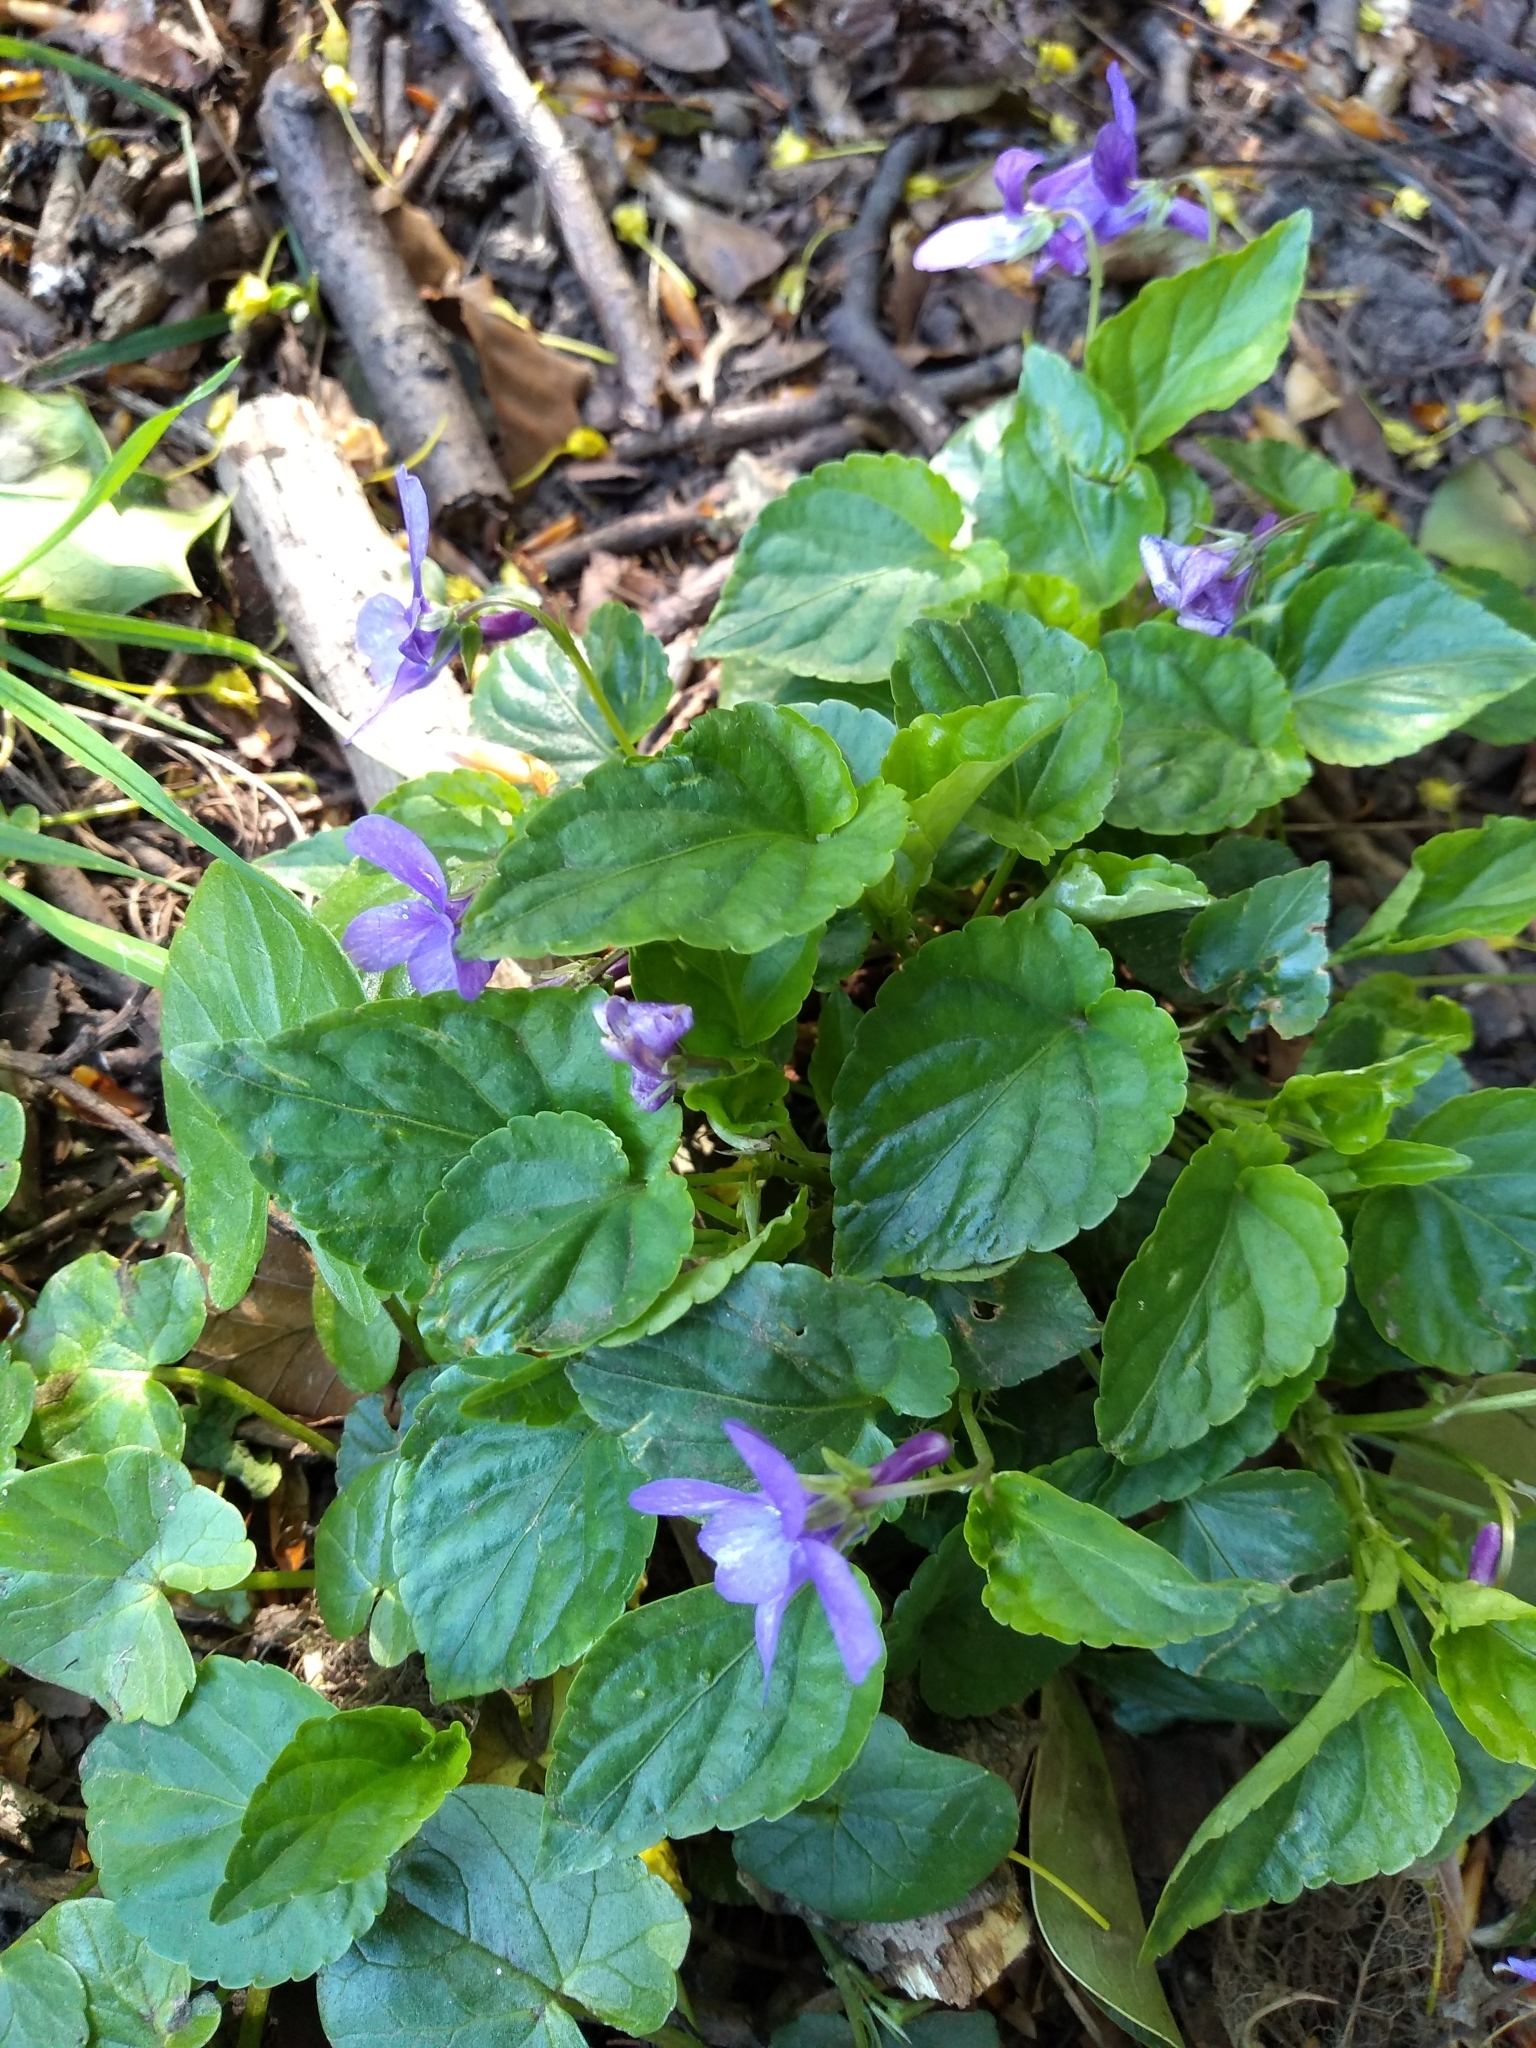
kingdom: Plantae
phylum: Tracheophyta
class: Magnoliopsida
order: Malpighiales
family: Violaceae
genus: Viola
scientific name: Viola reichenbachiana
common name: Early dog-violet
